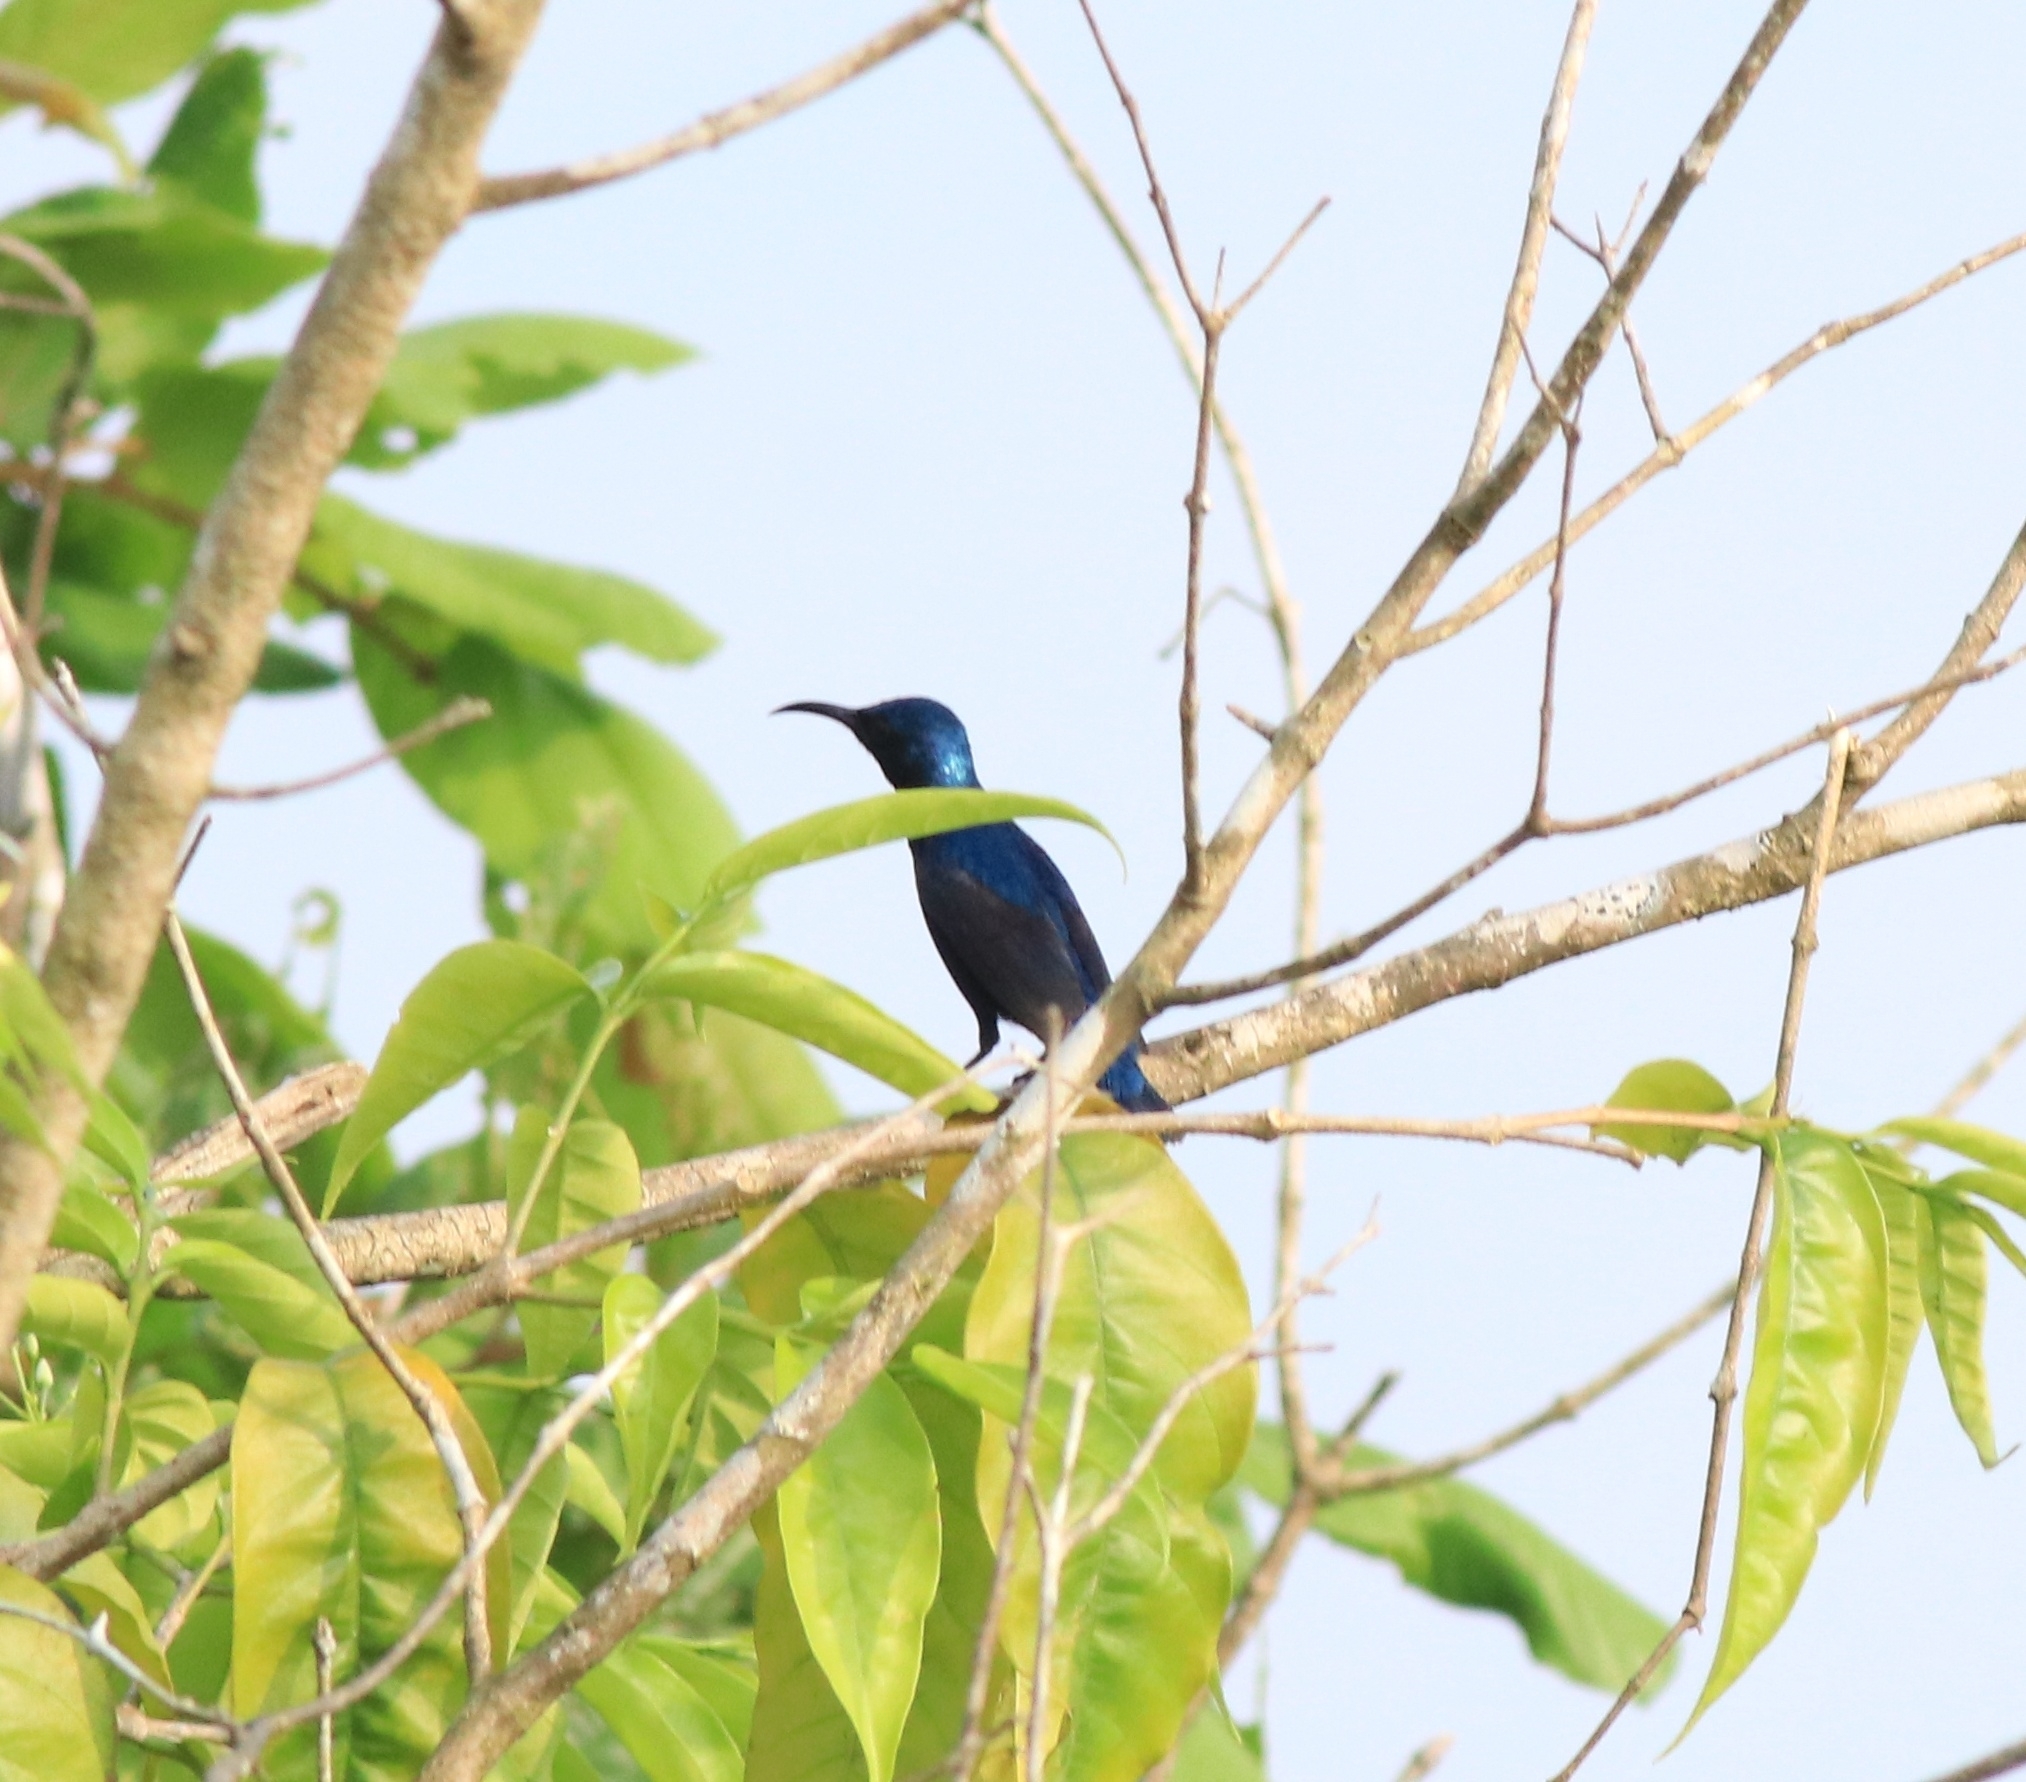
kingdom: Animalia
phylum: Chordata
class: Aves
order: Passeriformes
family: Nectariniidae
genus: Cinnyris
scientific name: Cinnyris asiaticus
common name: Purple sunbird
